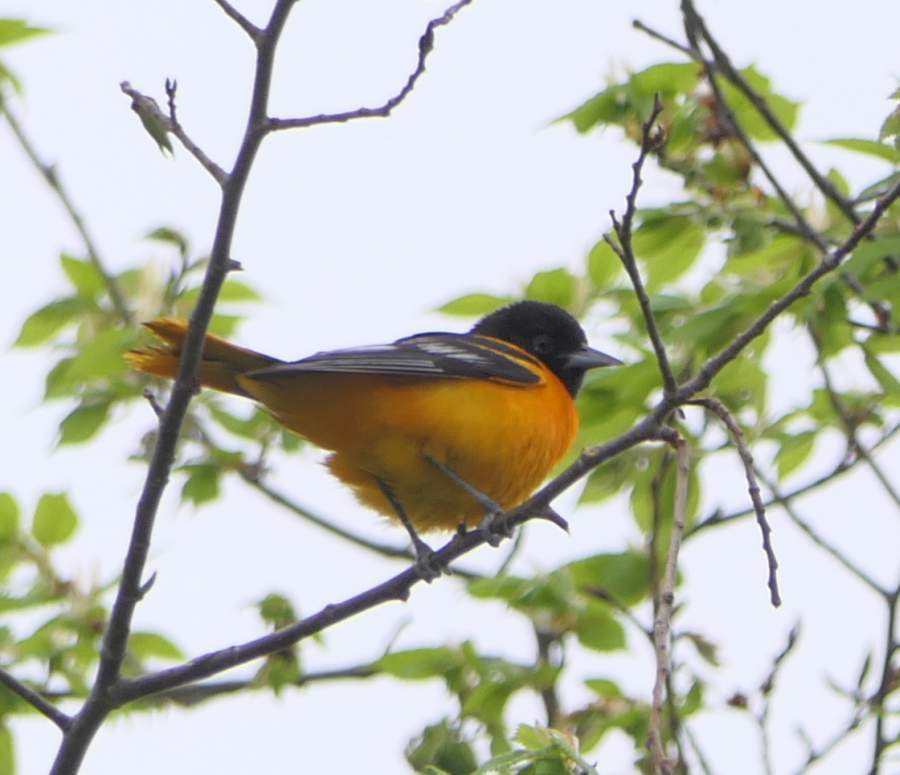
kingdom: Animalia
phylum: Chordata
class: Aves
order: Passeriformes
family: Icteridae
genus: Icterus
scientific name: Icterus galbula
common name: Baltimore oriole
